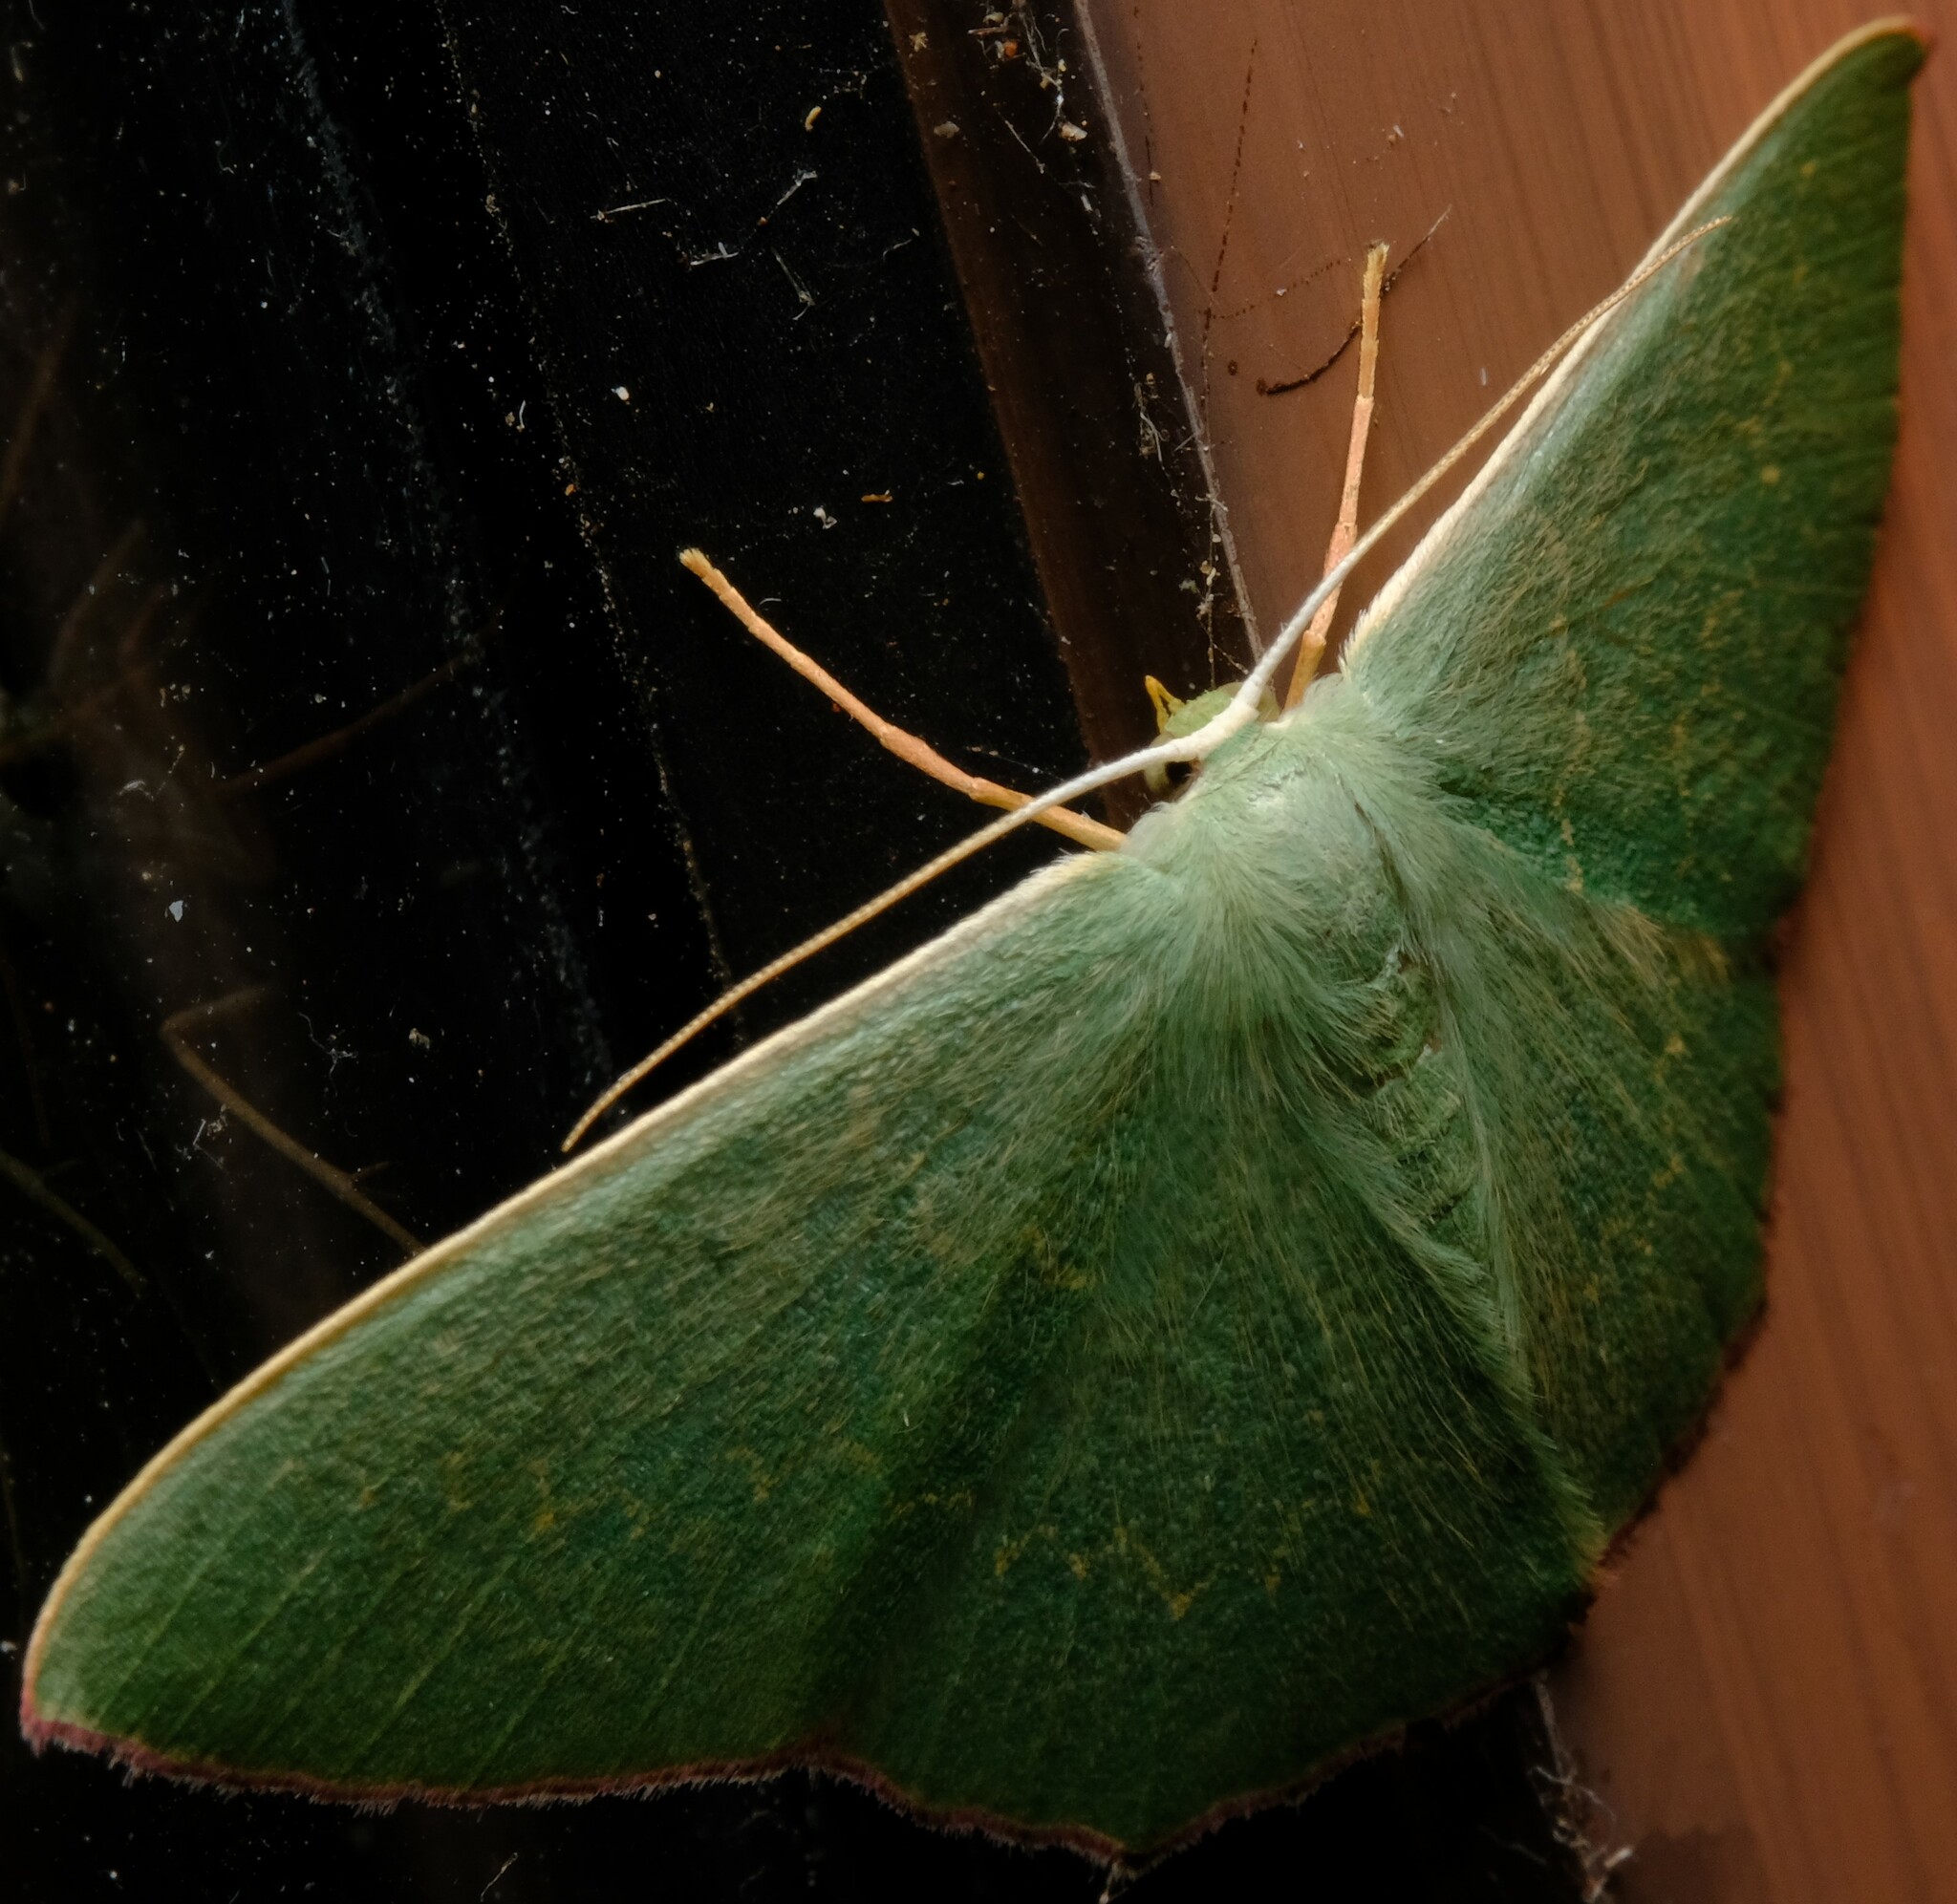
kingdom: Animalia
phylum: Arthropoda
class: Insecta
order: Lepidoptera
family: Geometridae
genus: Prasinocyma
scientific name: Prasinocyma semicrocea
